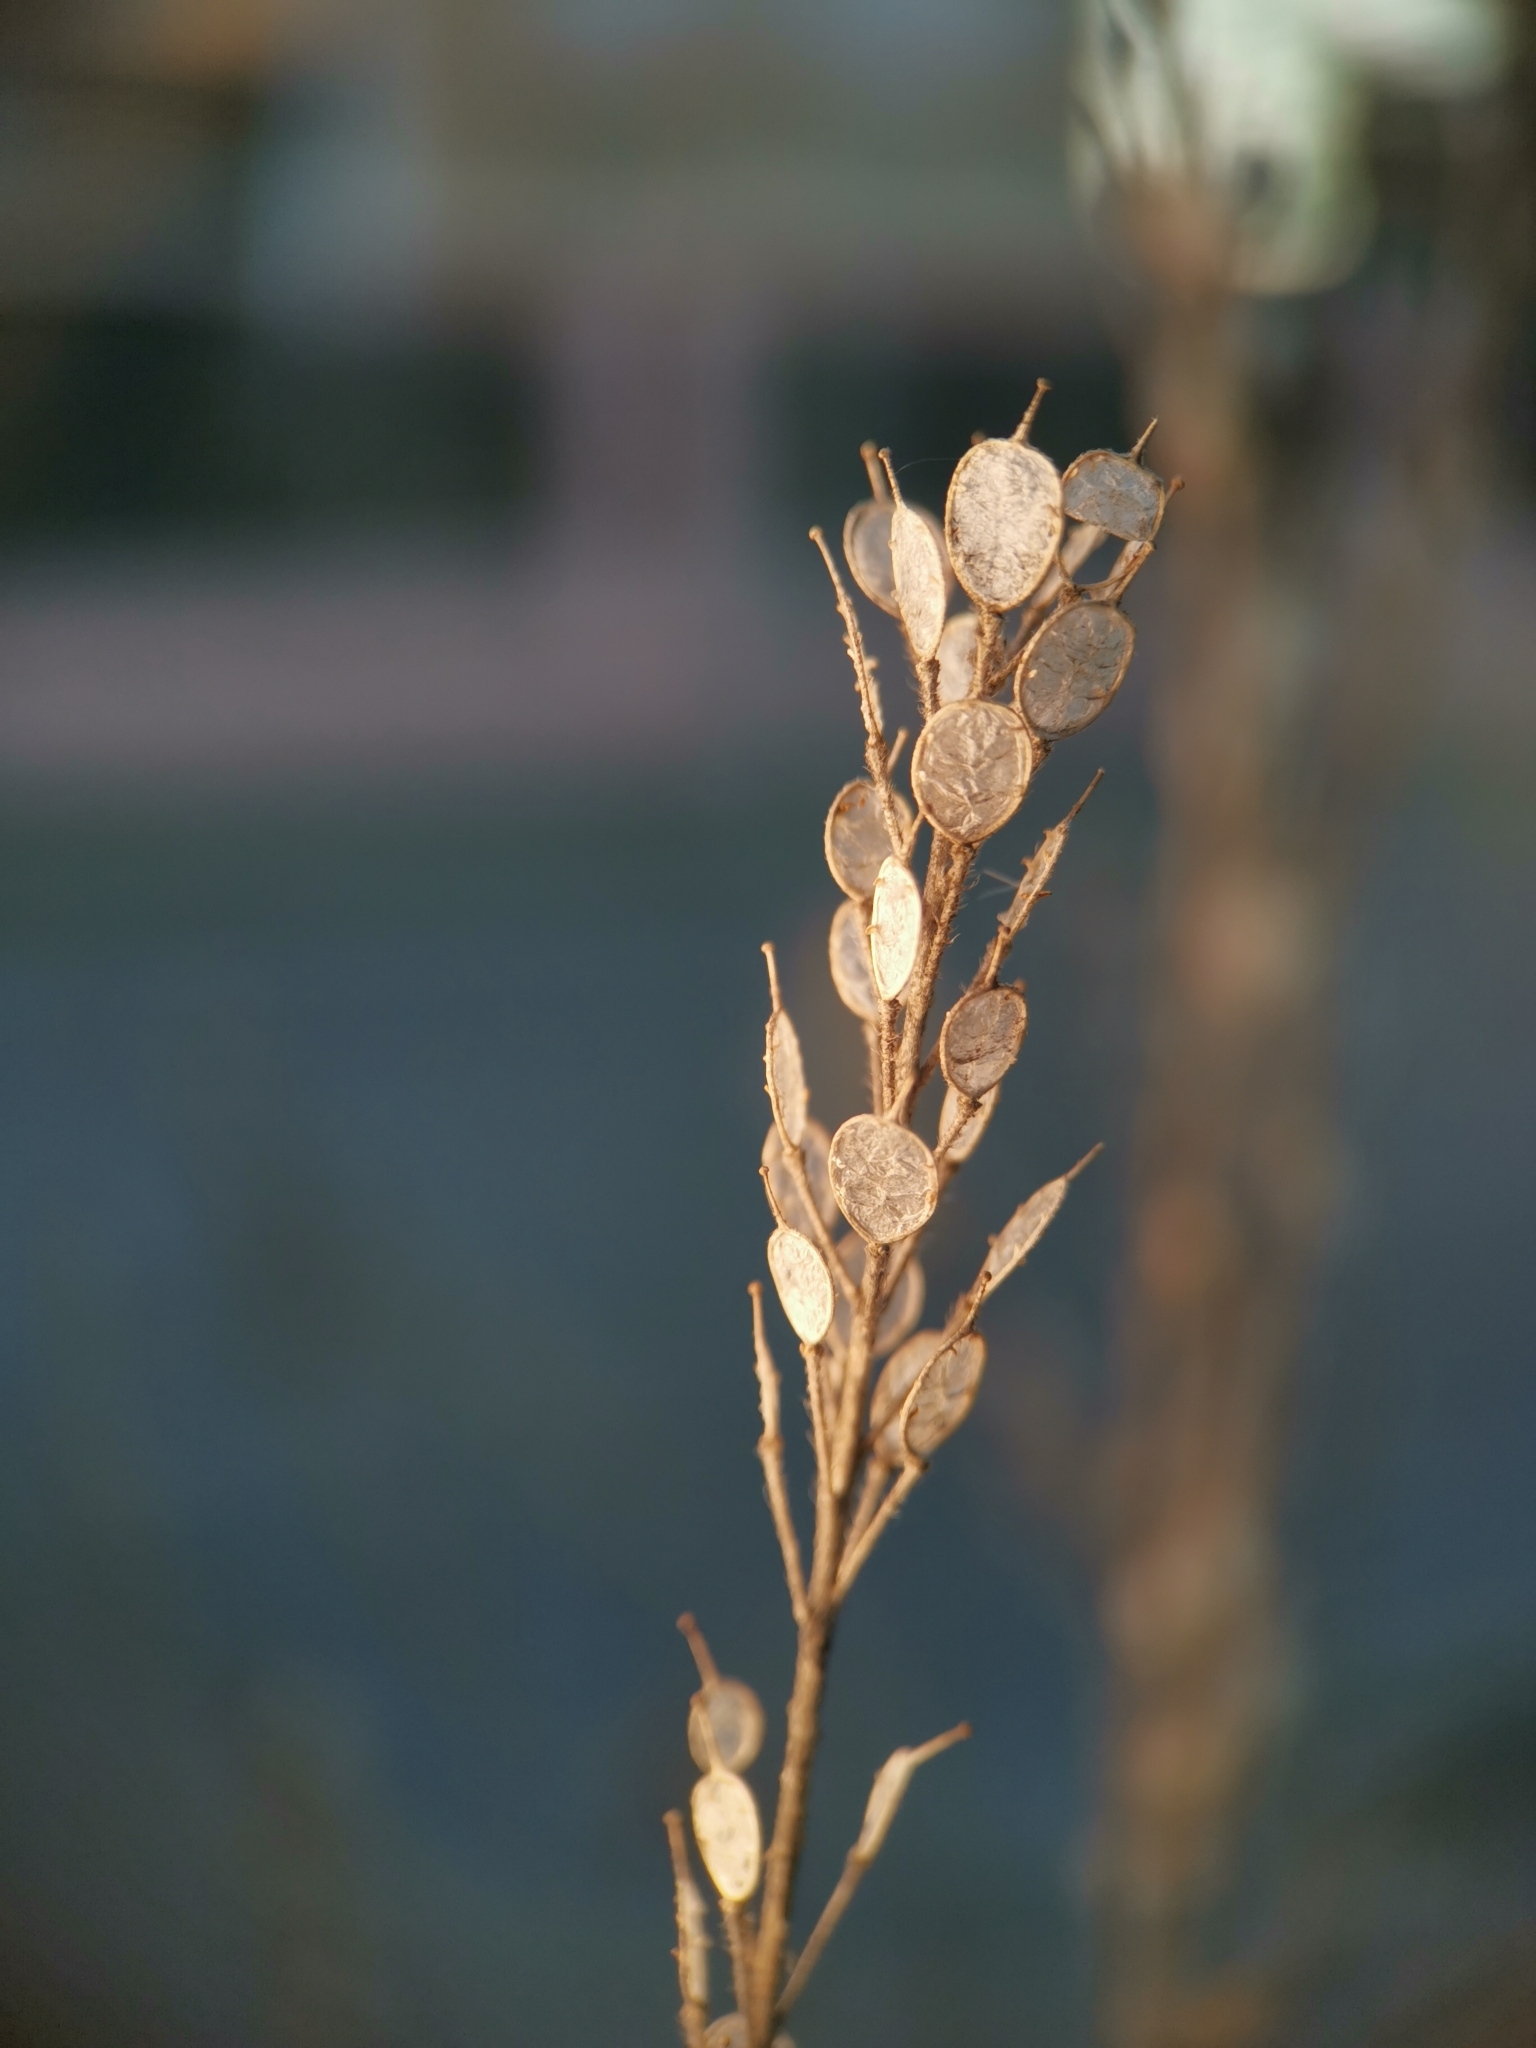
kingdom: Plantae
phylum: Tracheophyta
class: Magnoliopsida
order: Brassicales
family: Brassicaceae
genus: Berteroa
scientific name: Berteroa incana
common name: Hoary alison
